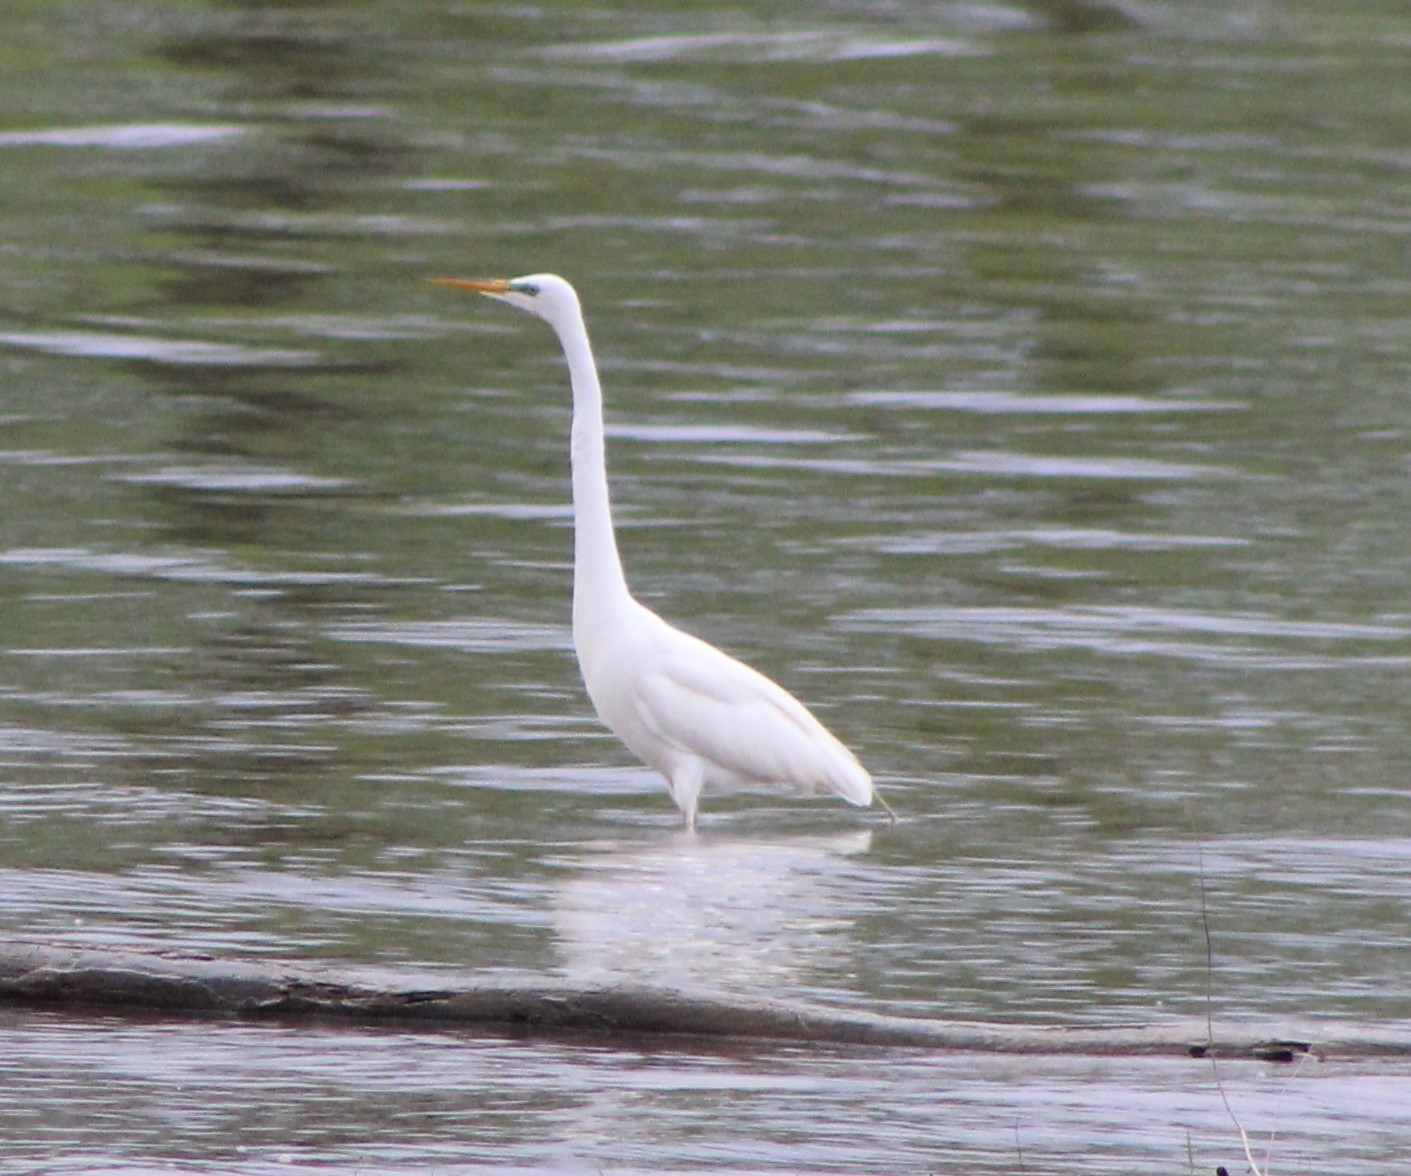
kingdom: Animalia
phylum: Chordata
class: Aves
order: Pelecaniformes
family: Ardeidae
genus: Ardea
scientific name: Ardea alba
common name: Great egret
